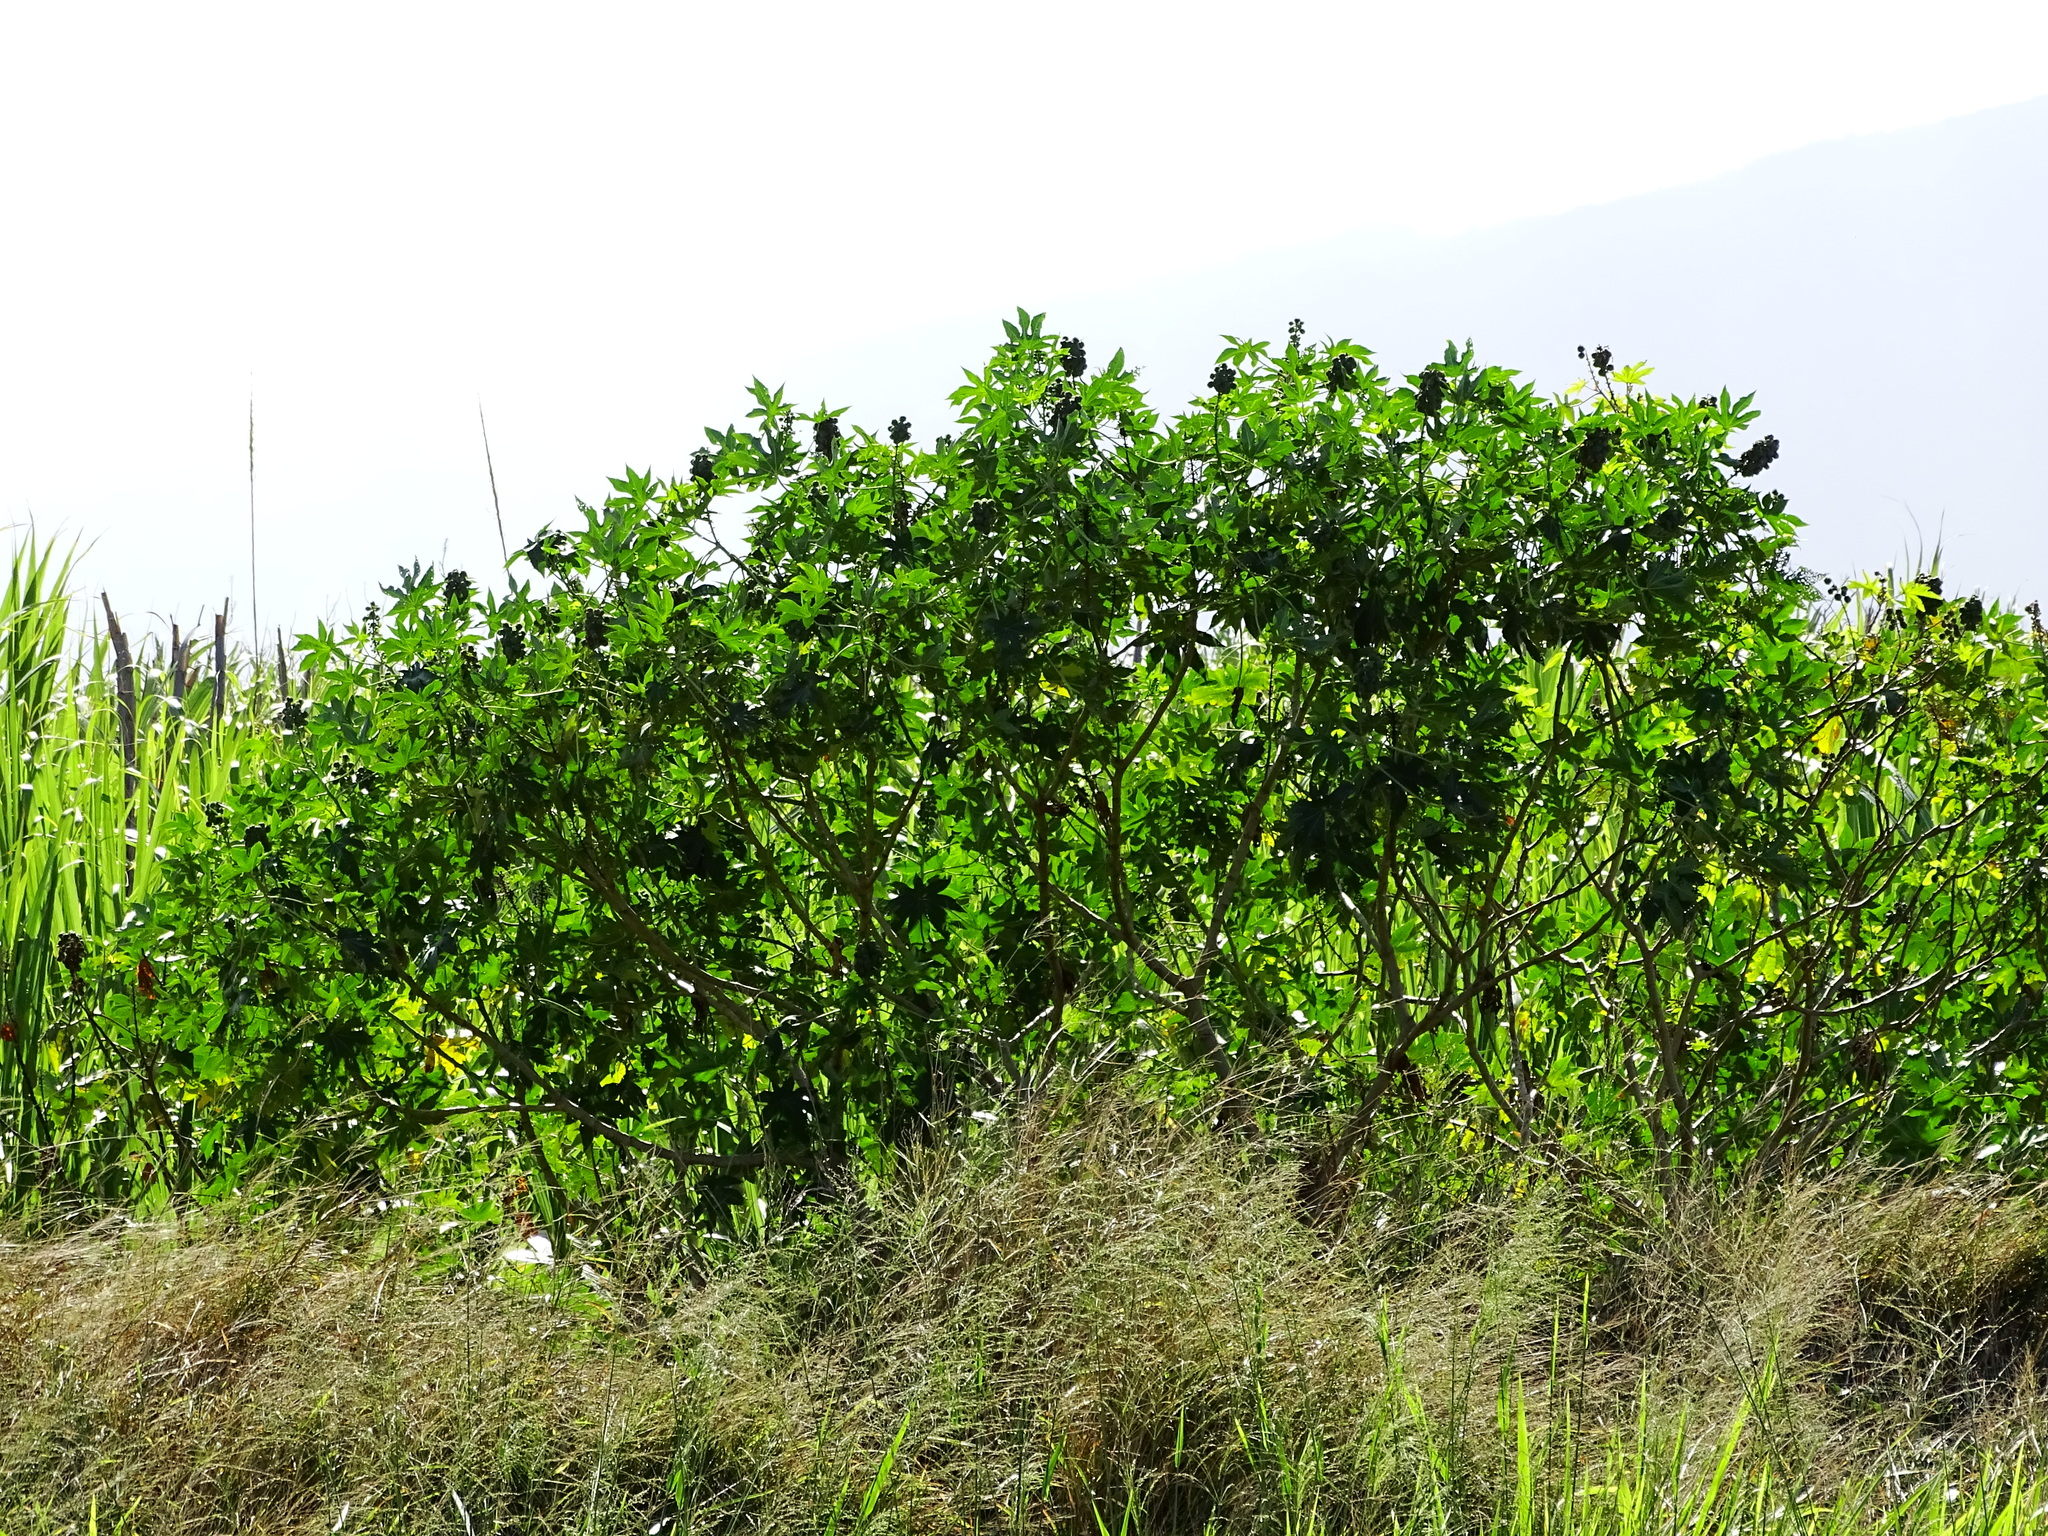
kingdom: Plantae
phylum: Tracheophyta
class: Magnoliopsida
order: Malpighiales
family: Euphorbiaceae
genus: Ricinus
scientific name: Ricinus communis
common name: Castor-oil-plant
